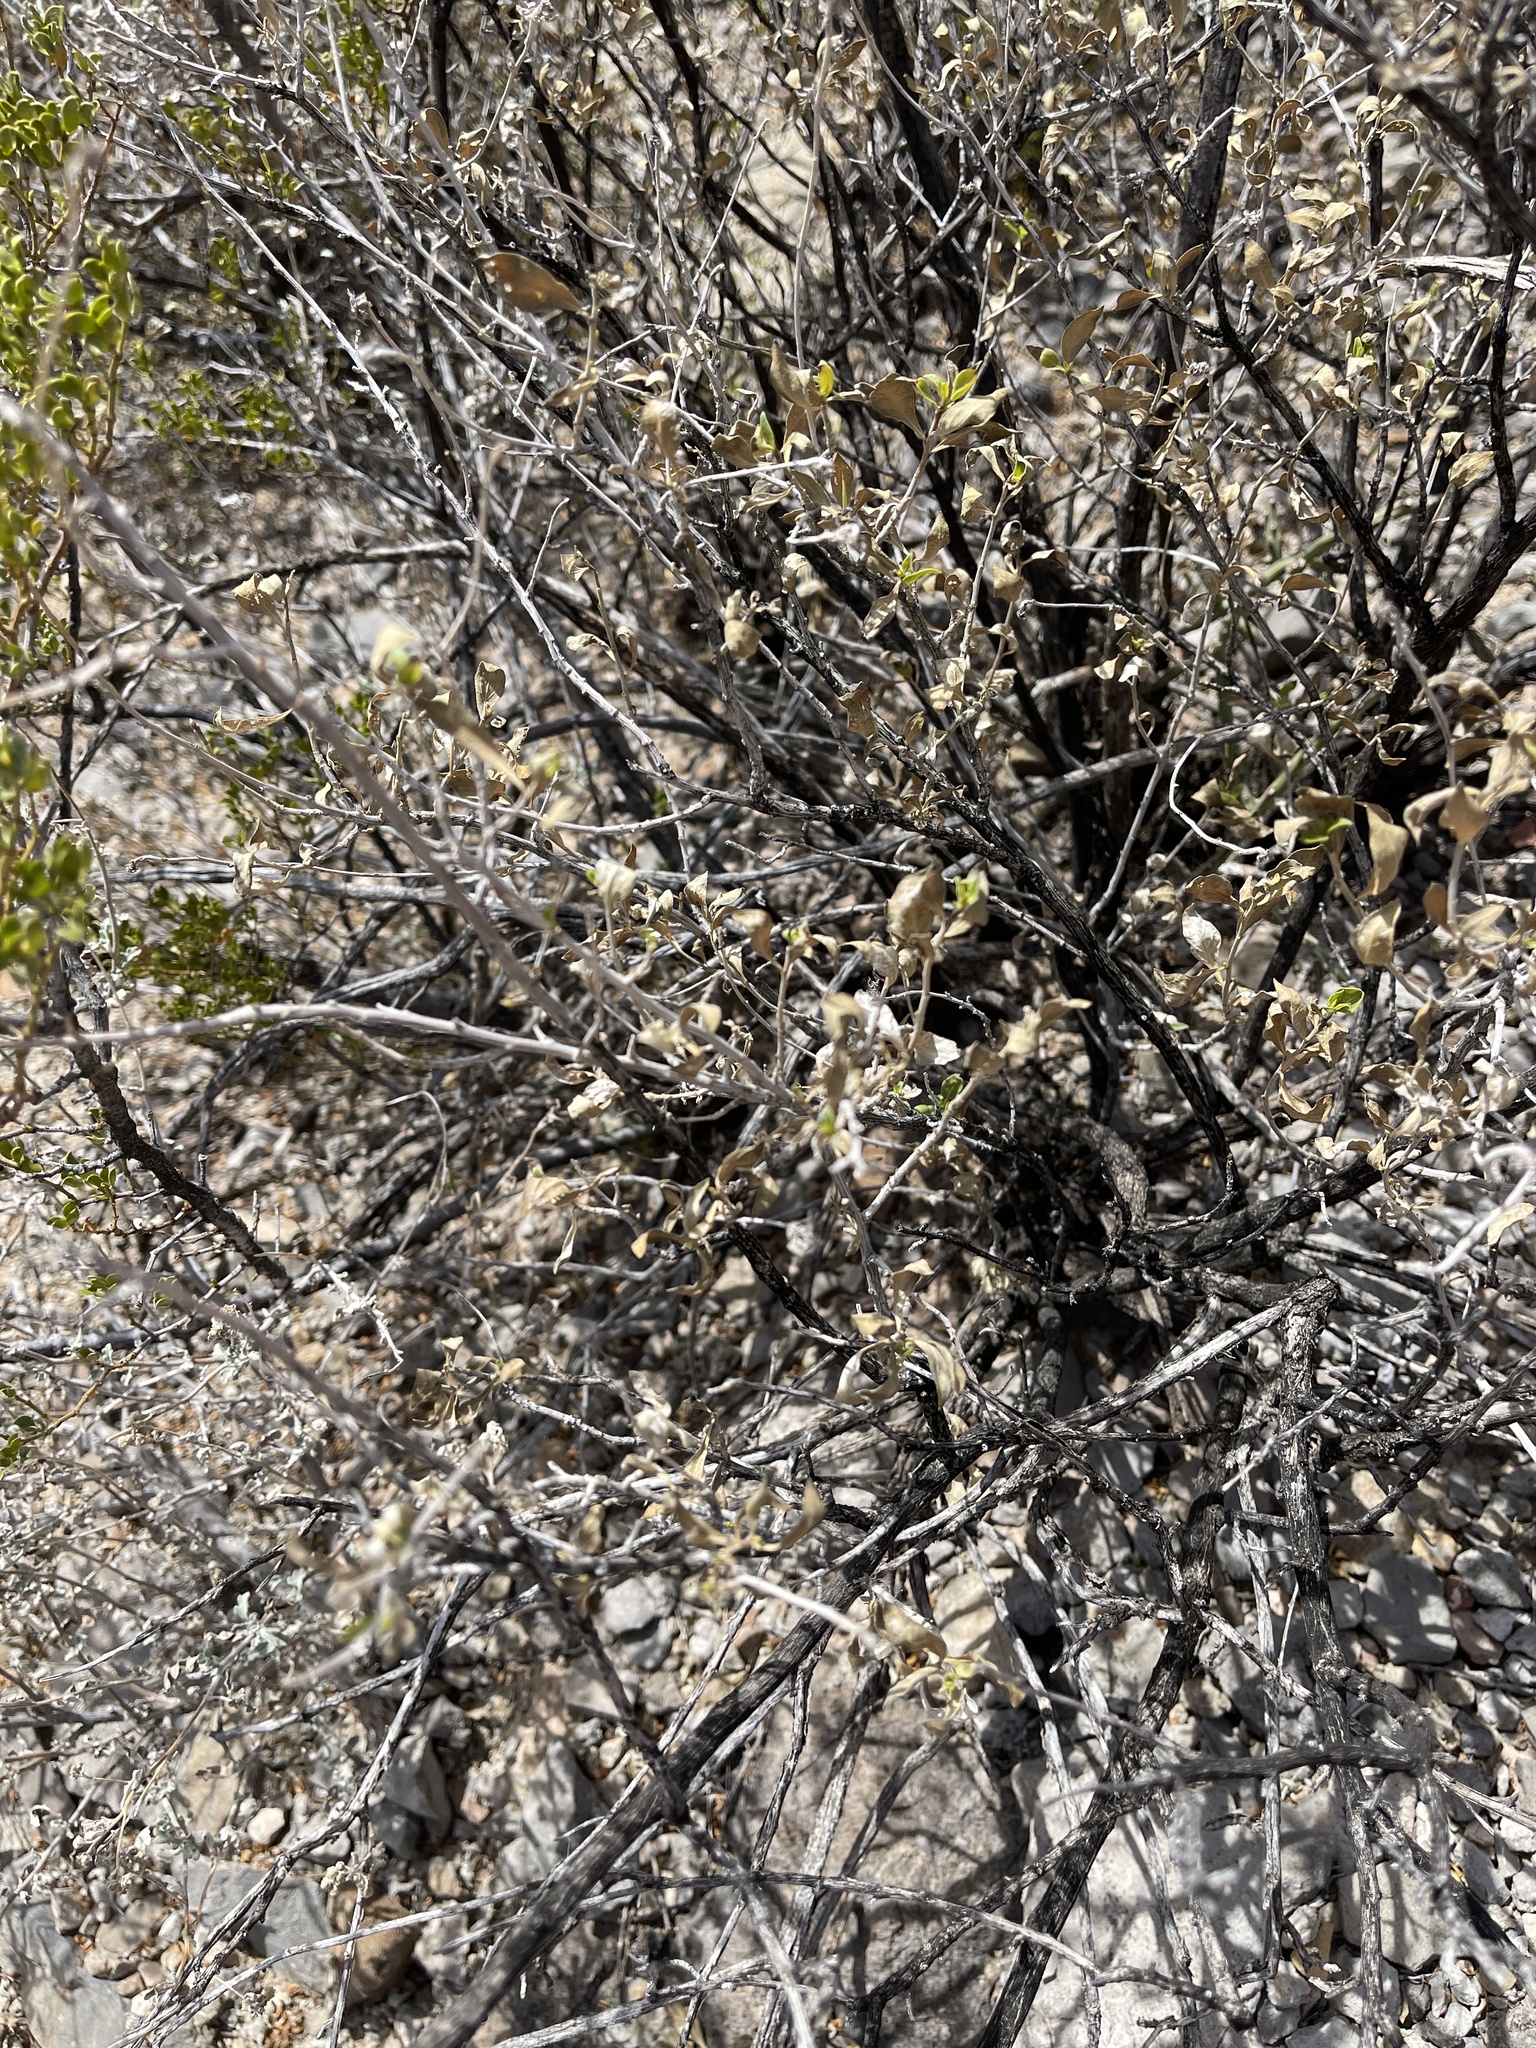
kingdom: Plantae
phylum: Tracheophyta
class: Magnoliopsida
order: Asterales
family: Asteraceae
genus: Flourensia
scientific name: Flourensia cernua
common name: Varnishbush
